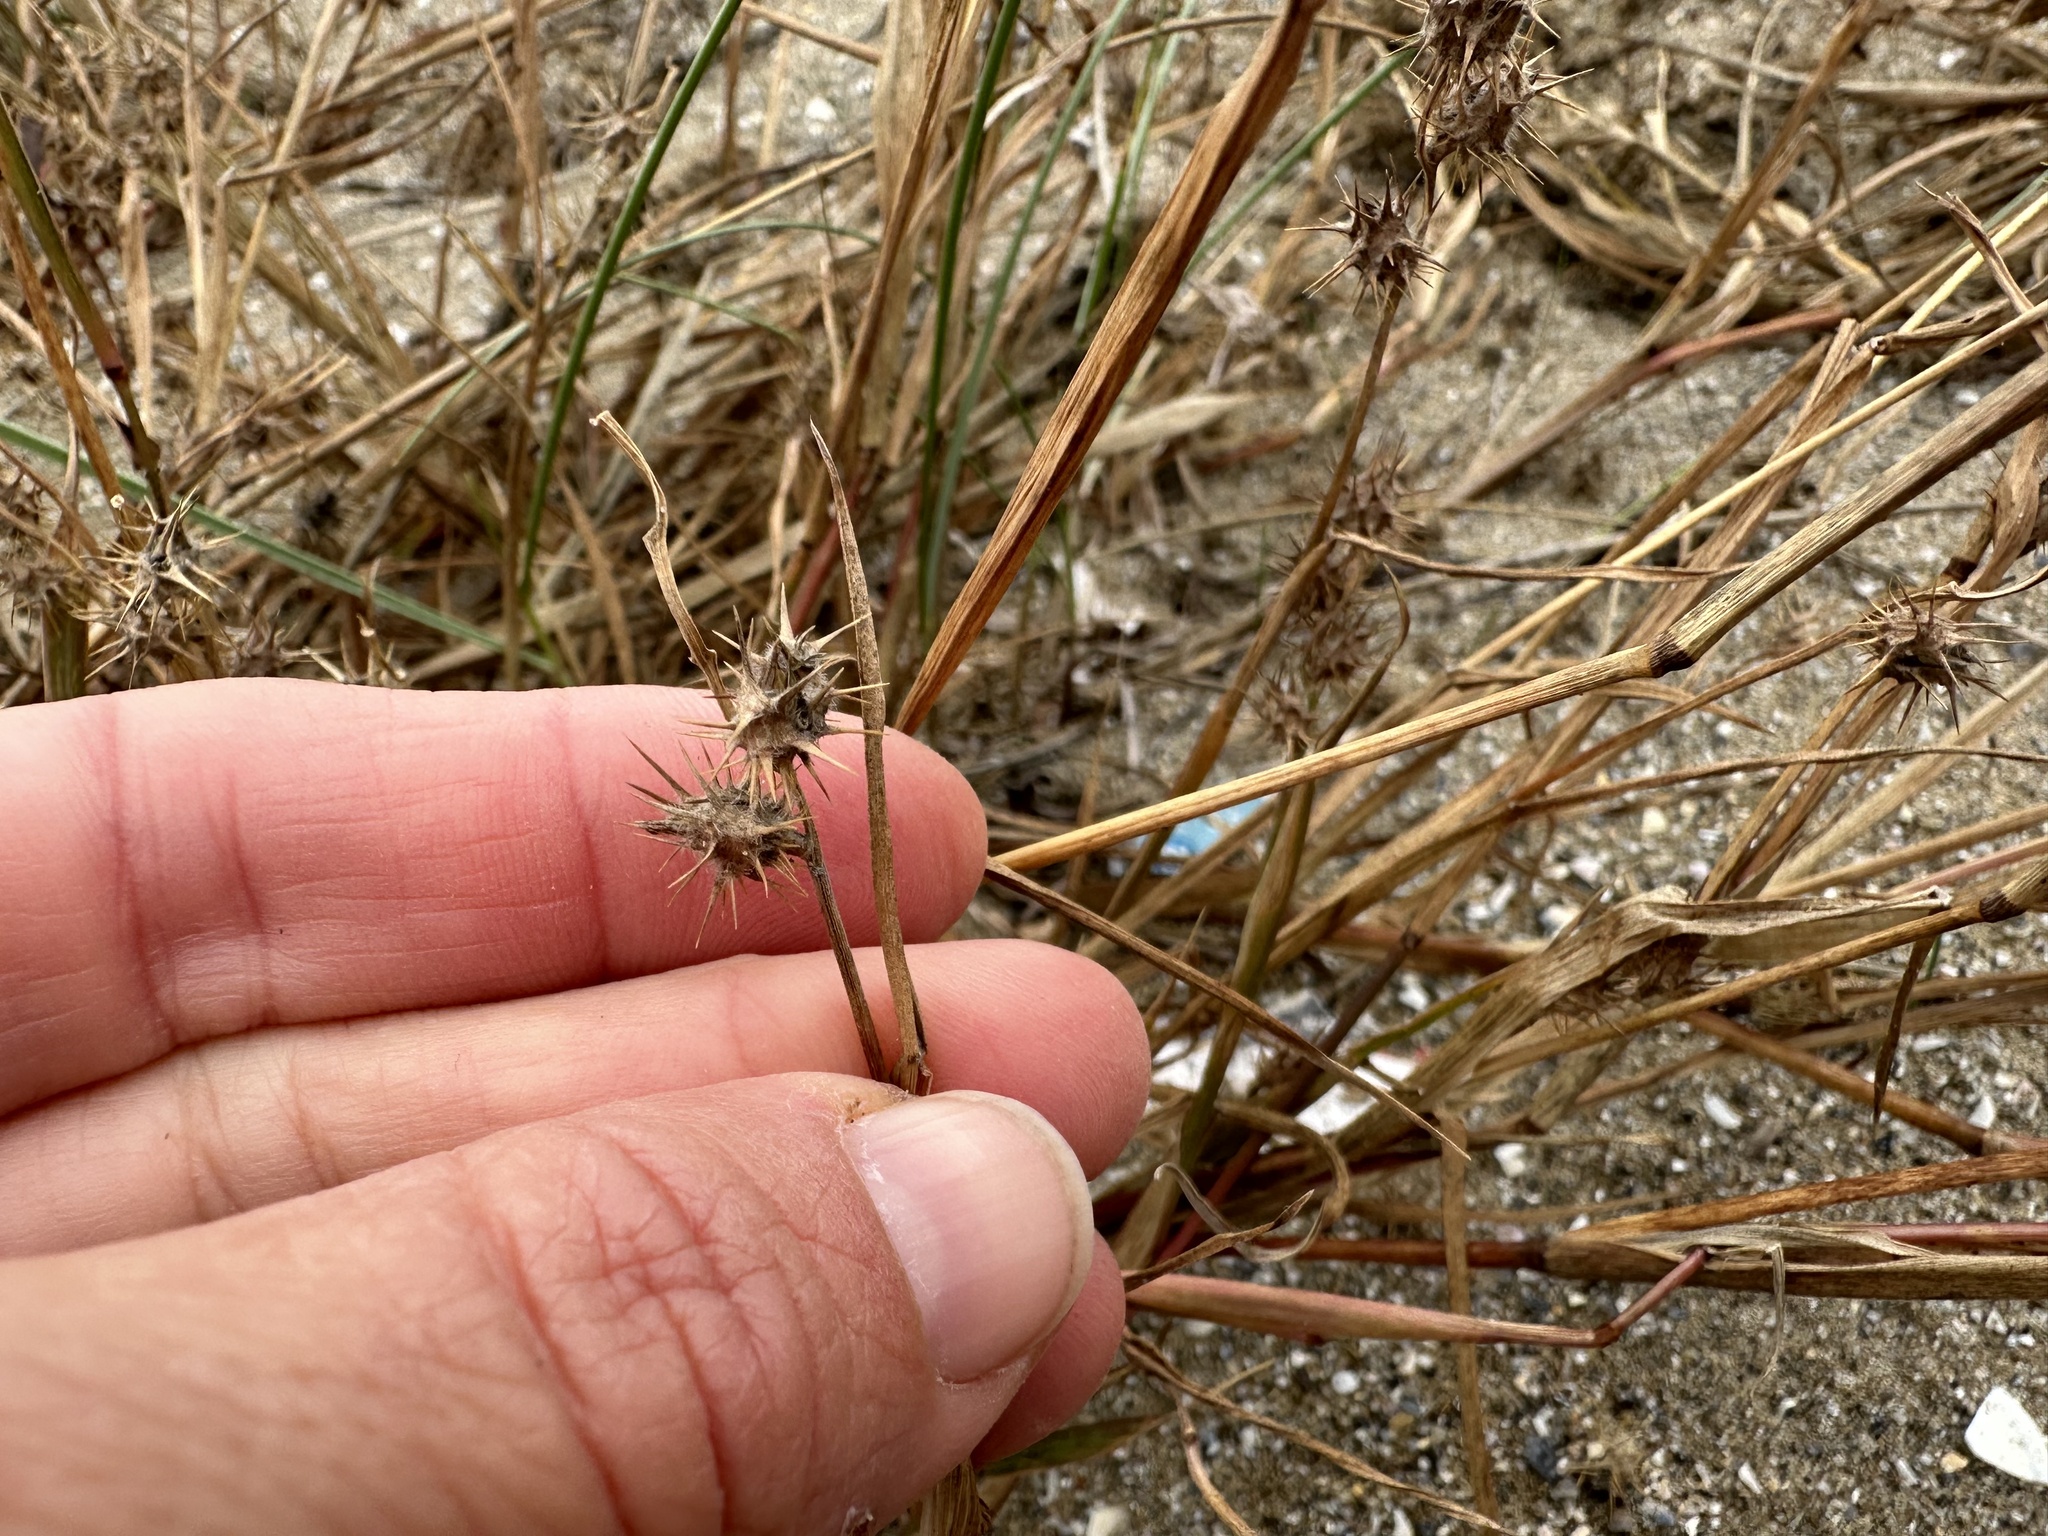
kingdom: Plantae
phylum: Tracheophyta
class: Liliopsida
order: Poales
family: Poaceae
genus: Cenchrus
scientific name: Cenchrus spinifex
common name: Coast sandbur
